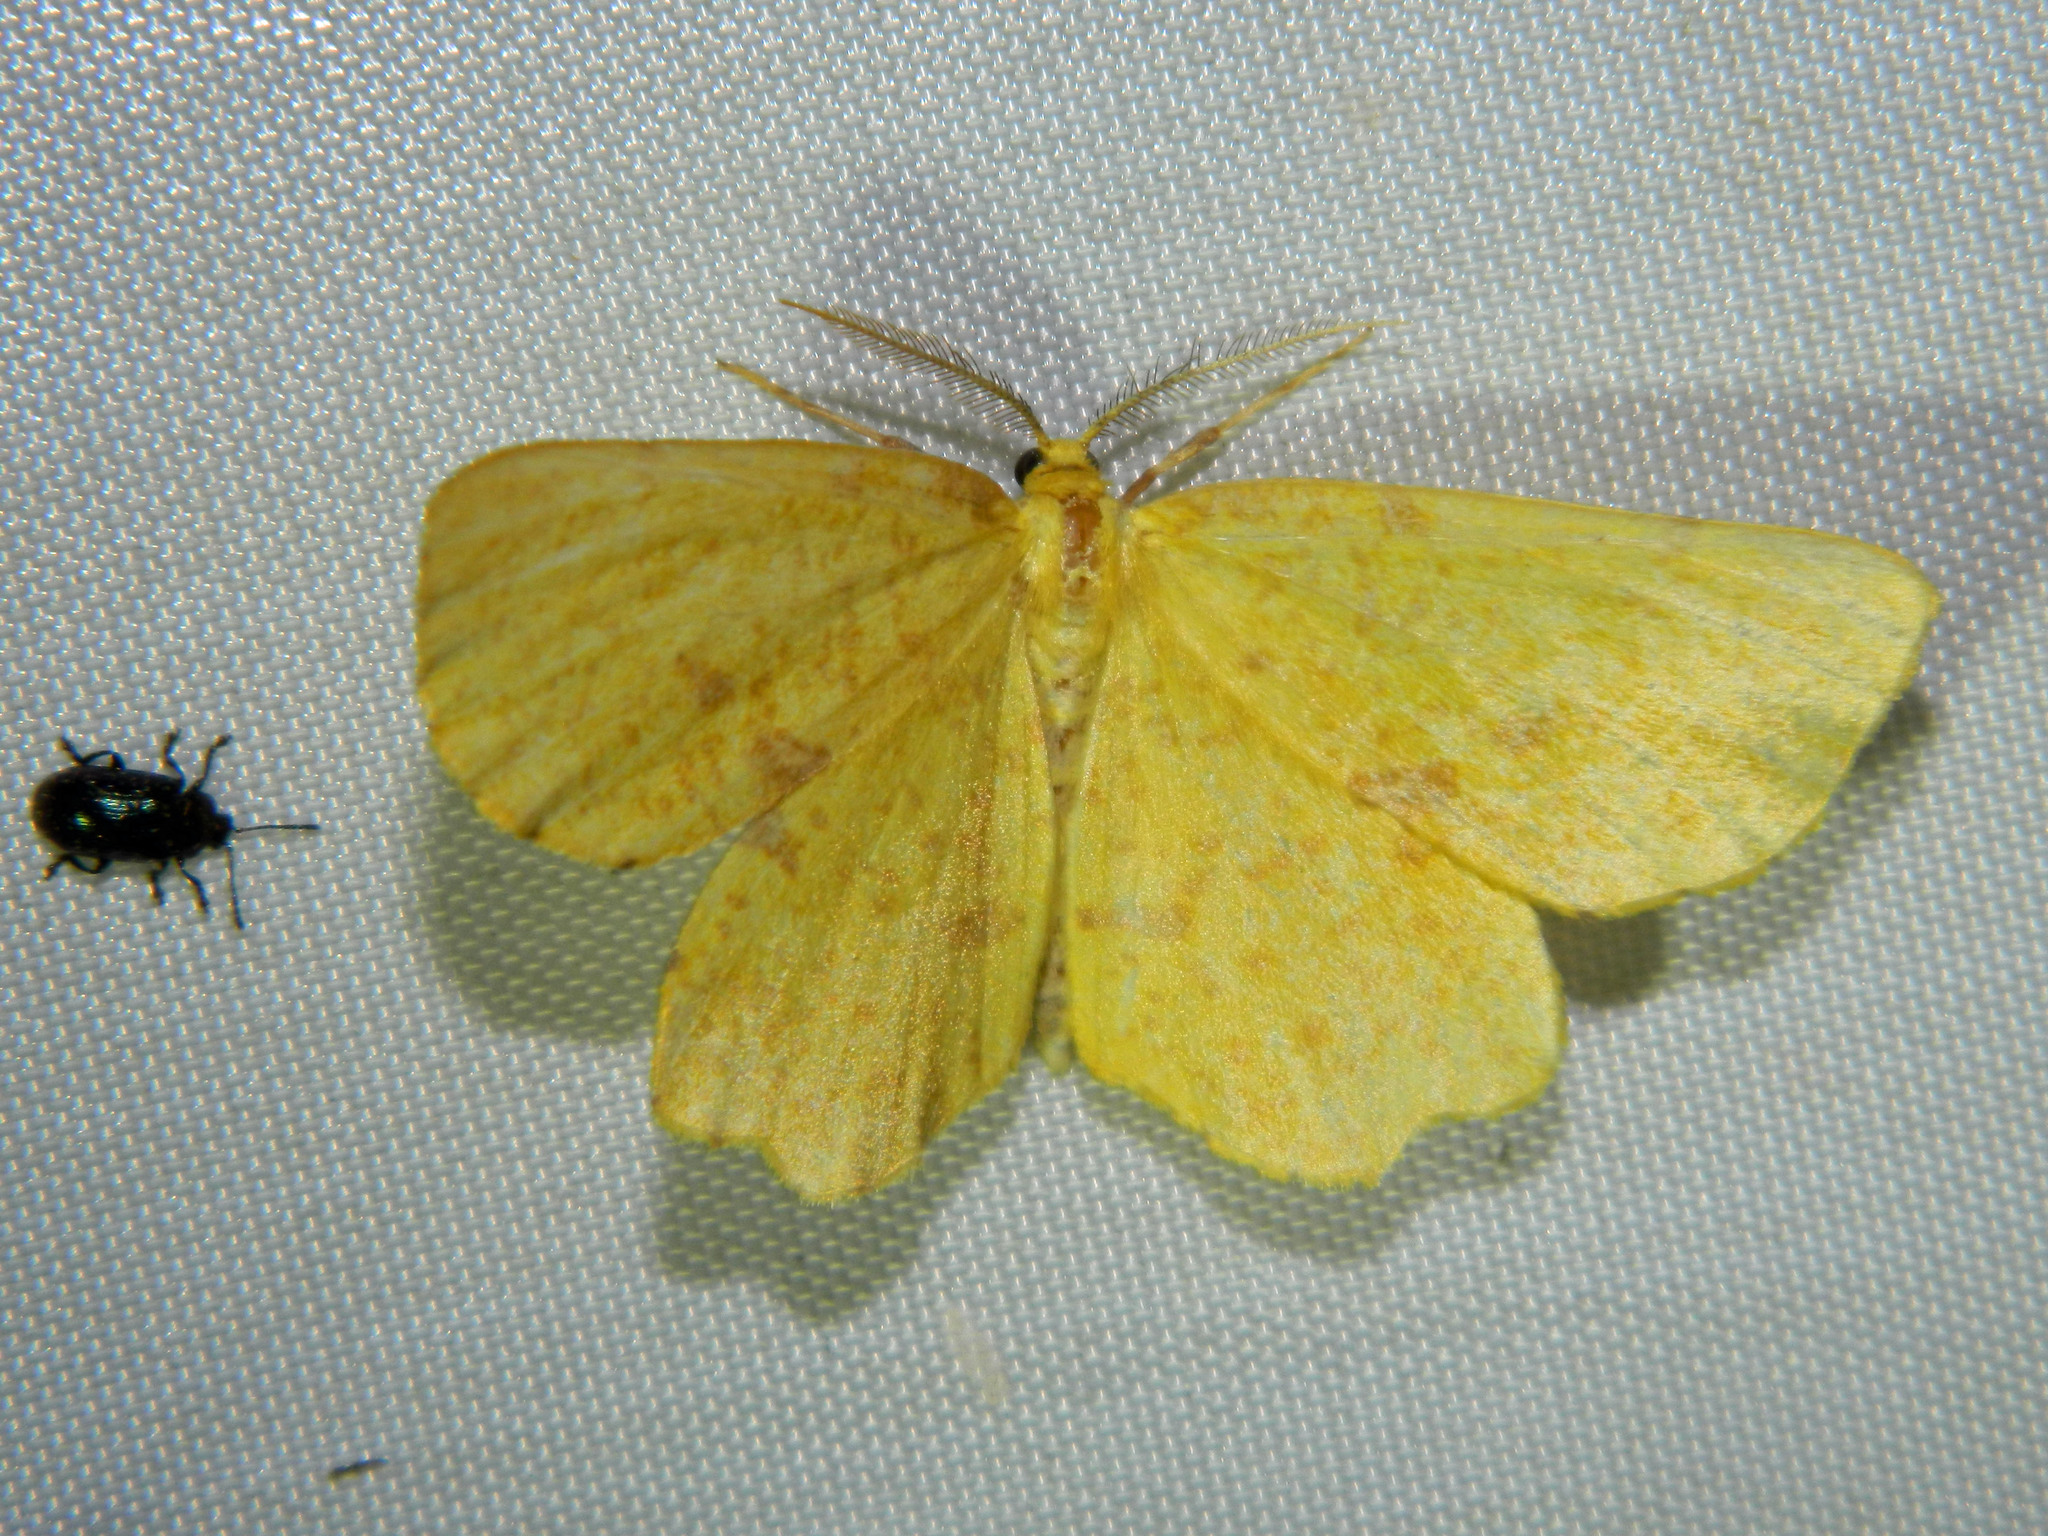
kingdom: Animalia
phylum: Arthropoda
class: Insecta
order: Lepidoptera
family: Geometridae
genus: Xanthotype
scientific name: Xanthotype
